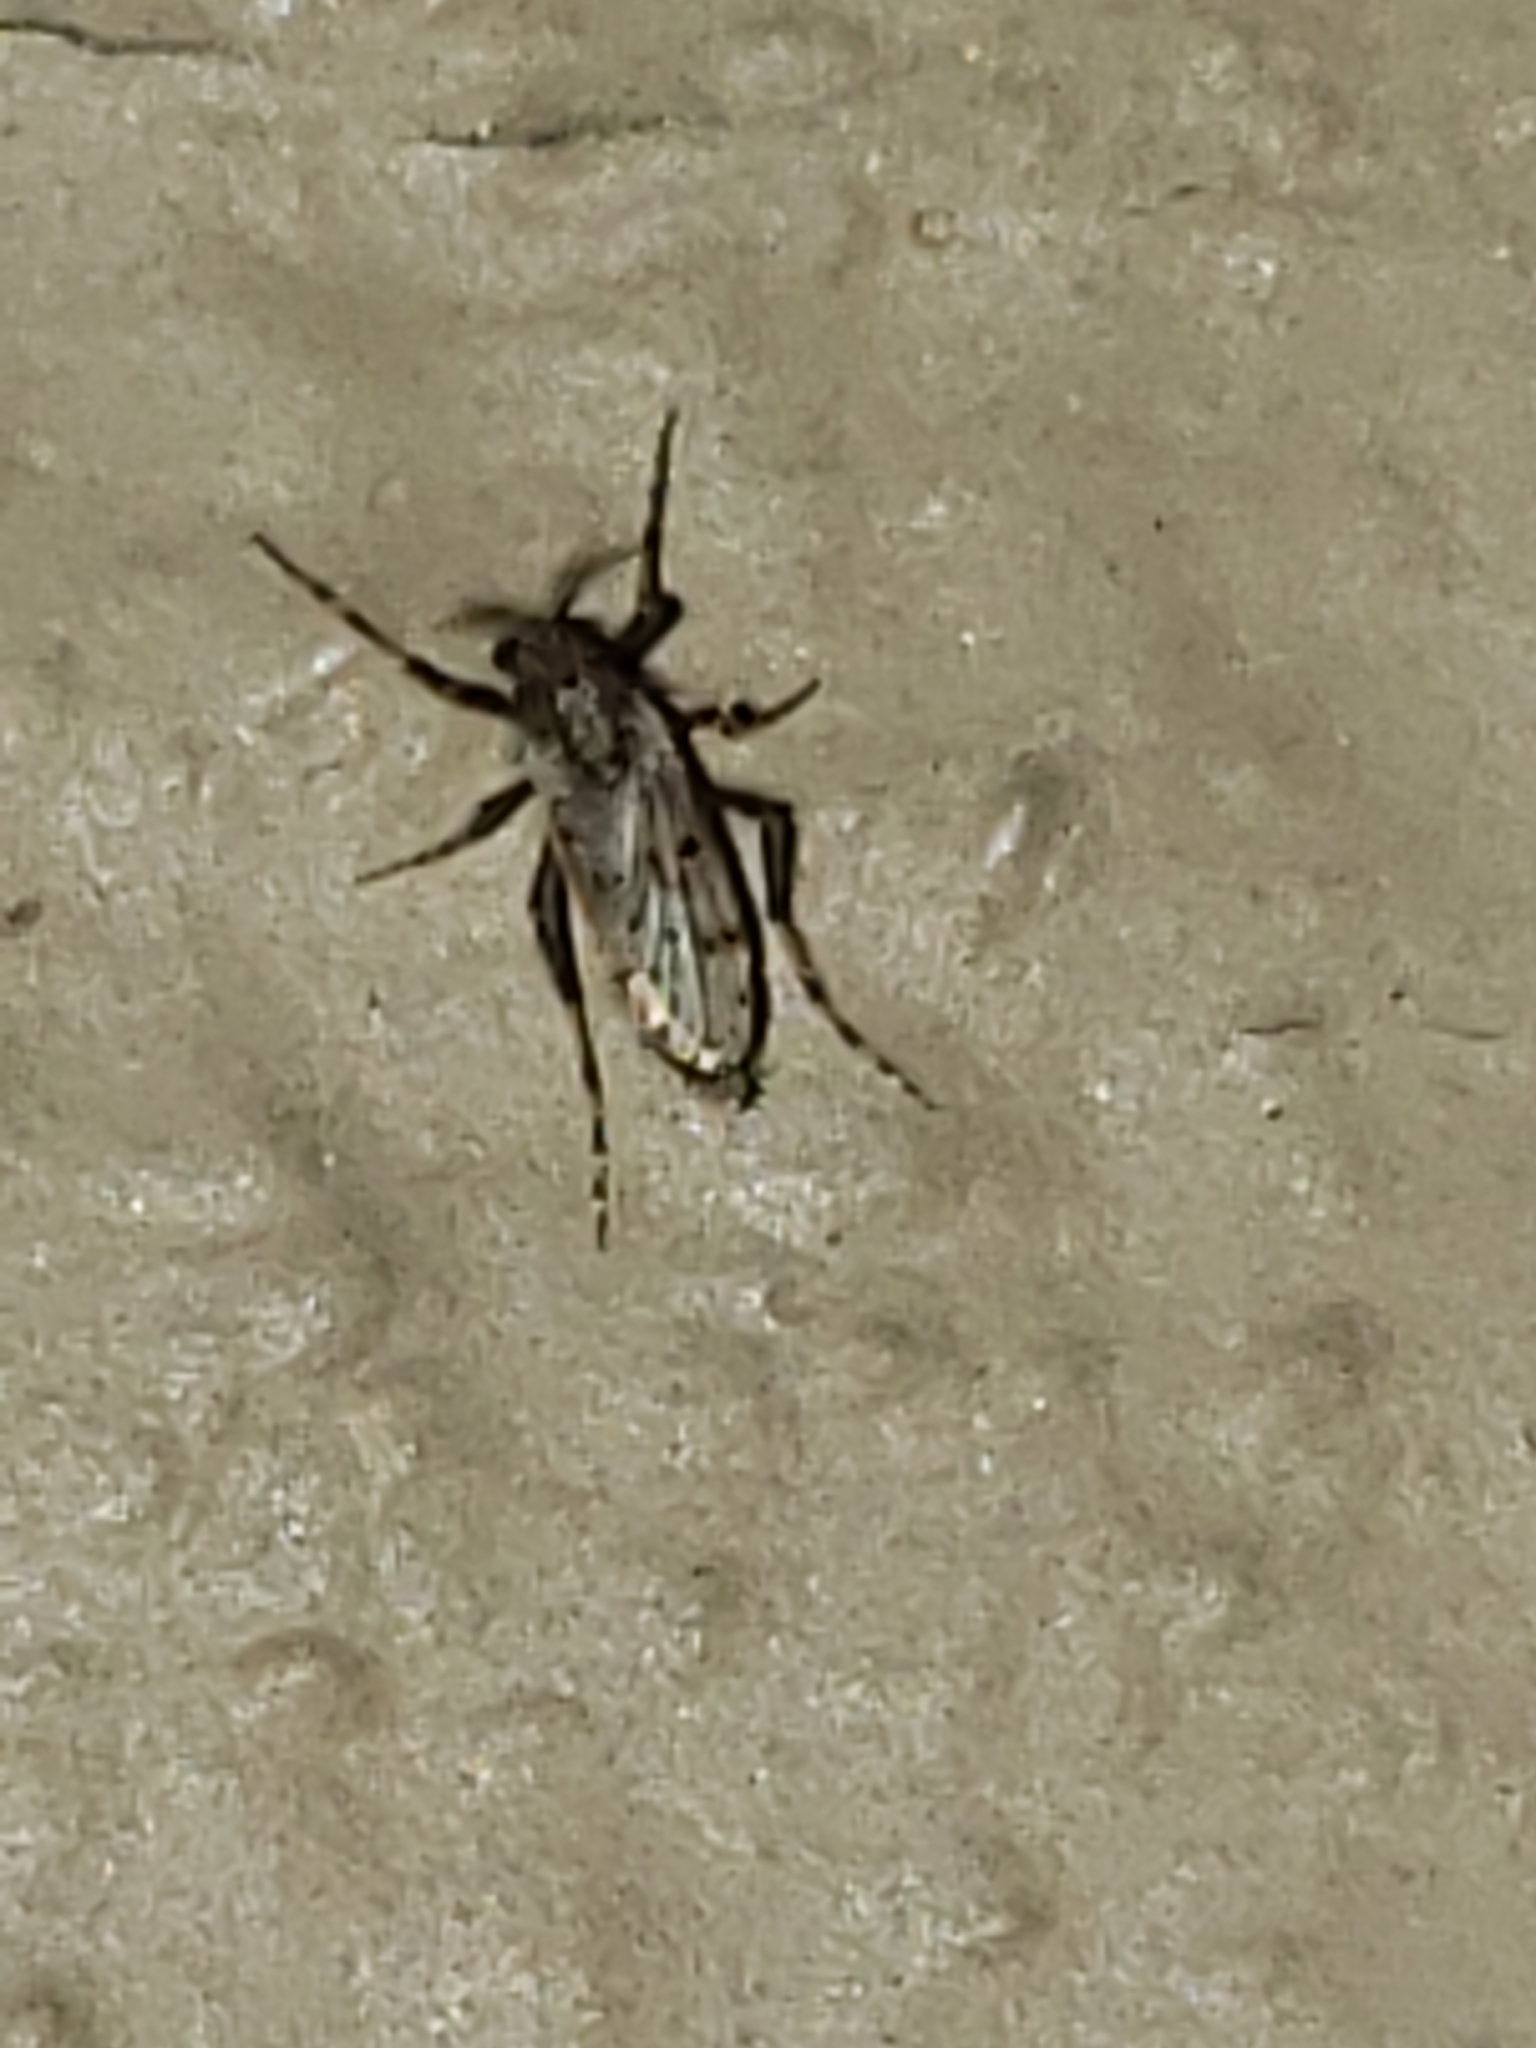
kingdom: Animalia
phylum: Arthropoda
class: Insecta
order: Diptera
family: Chaoboridae
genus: Chaoborus
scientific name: Chaoborus punctipennis
